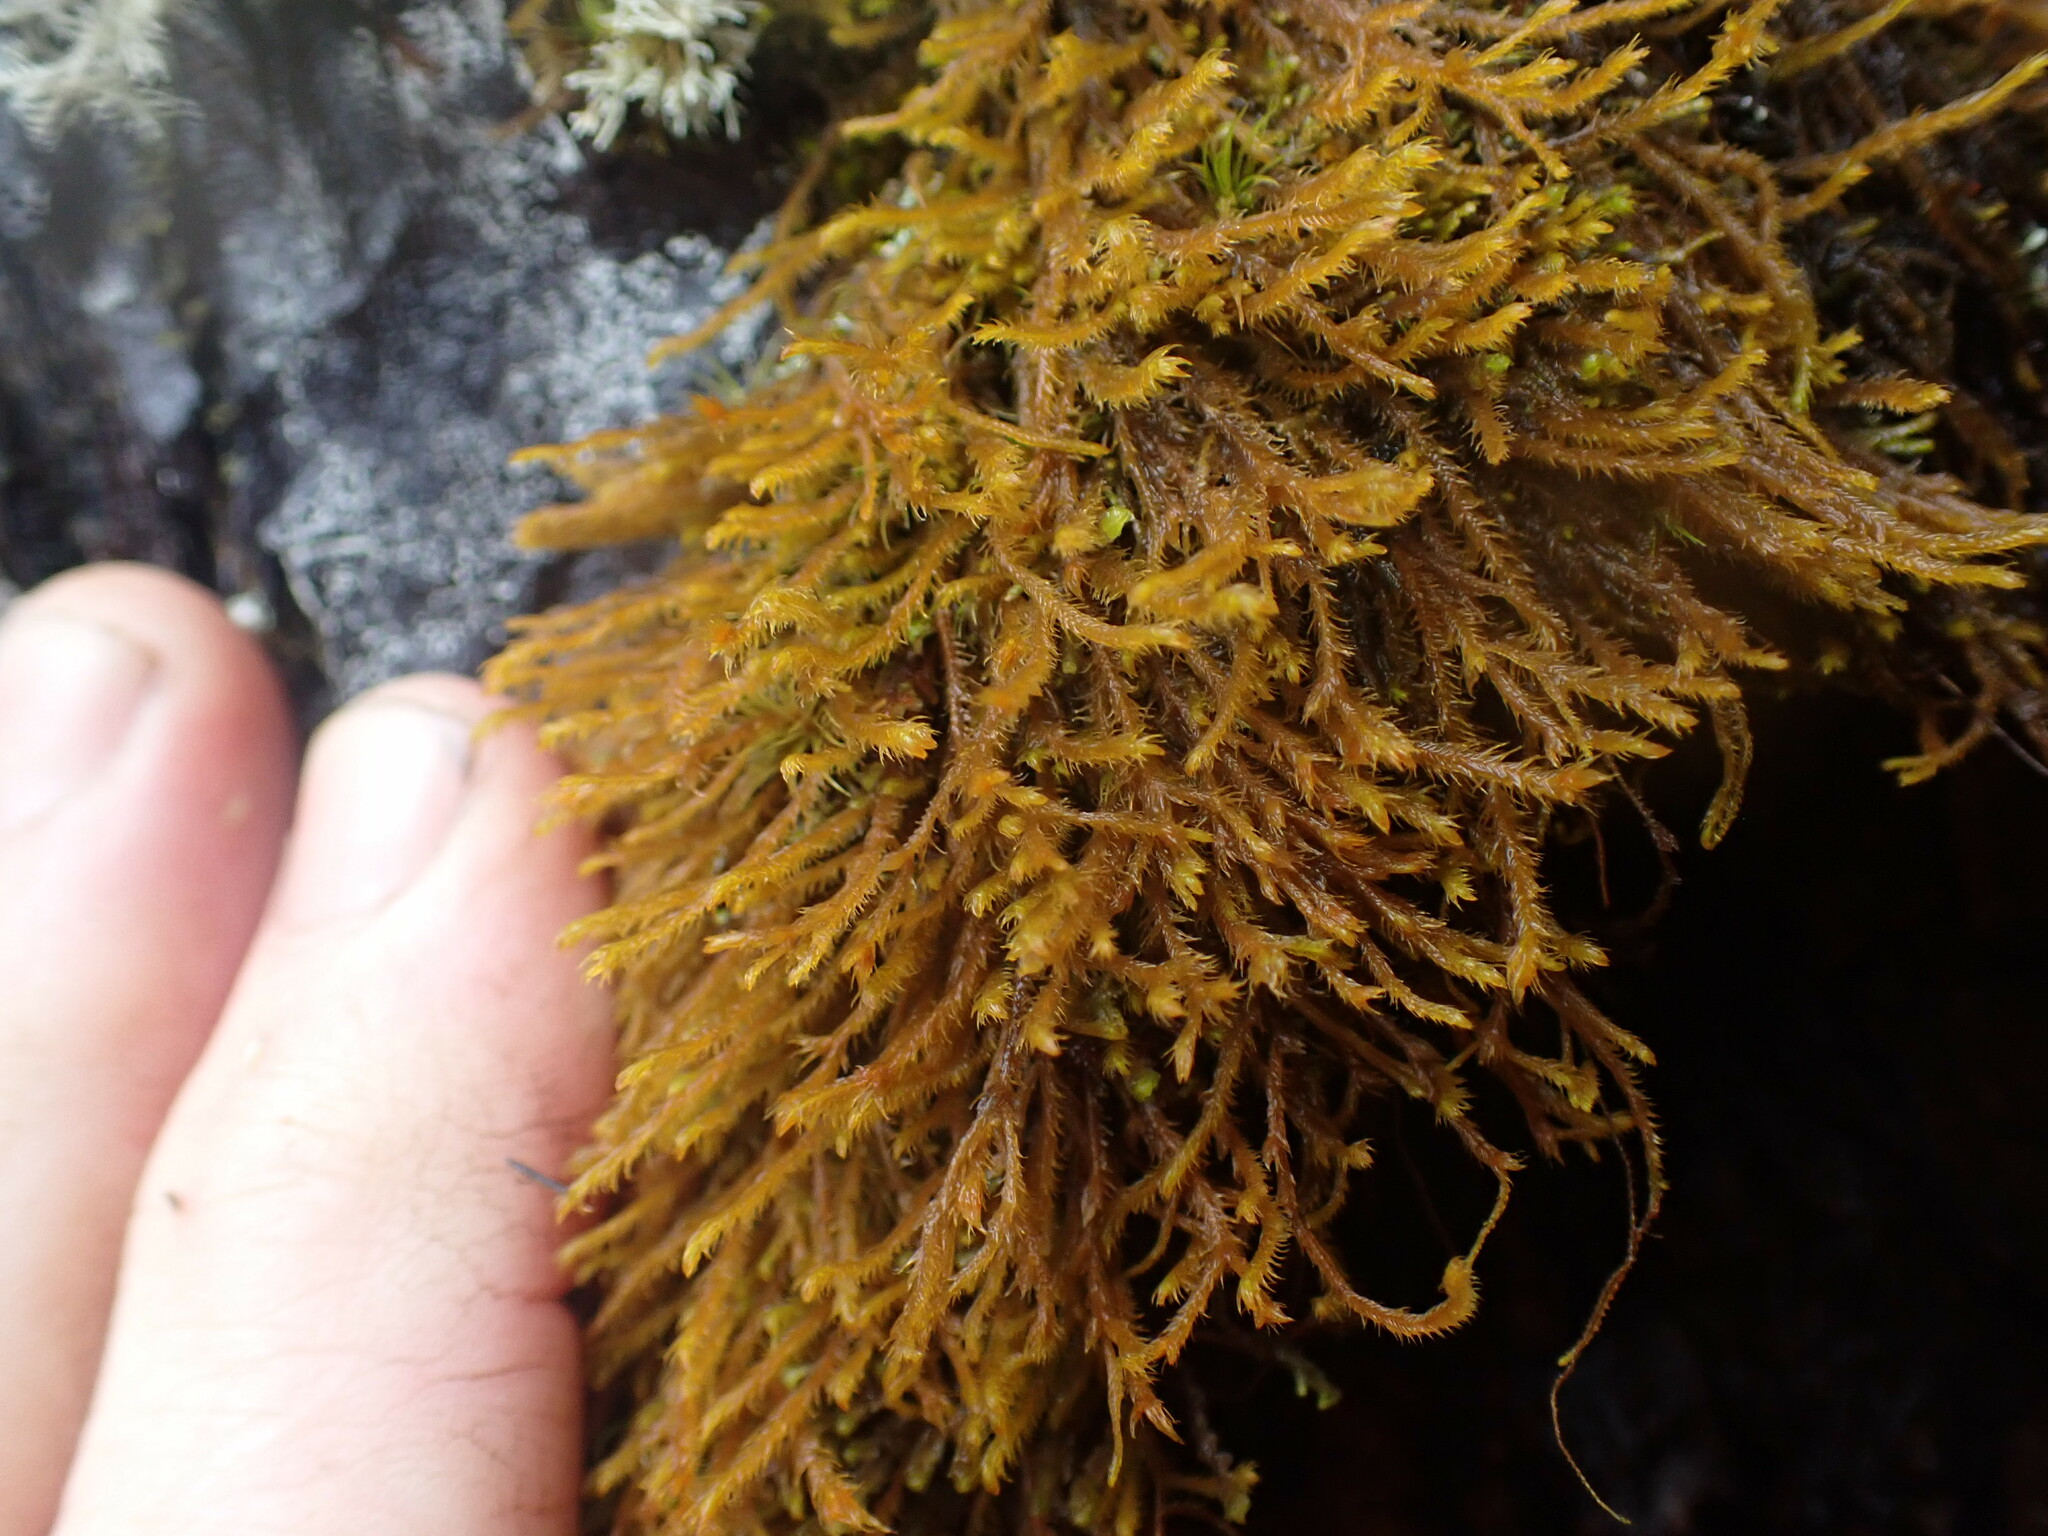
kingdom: Plantae
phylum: Marchantiophyta
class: Jungermanniopsida
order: Jungermanniales
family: Herbertaceae
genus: Herbertus
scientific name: Herbertus aduncus
